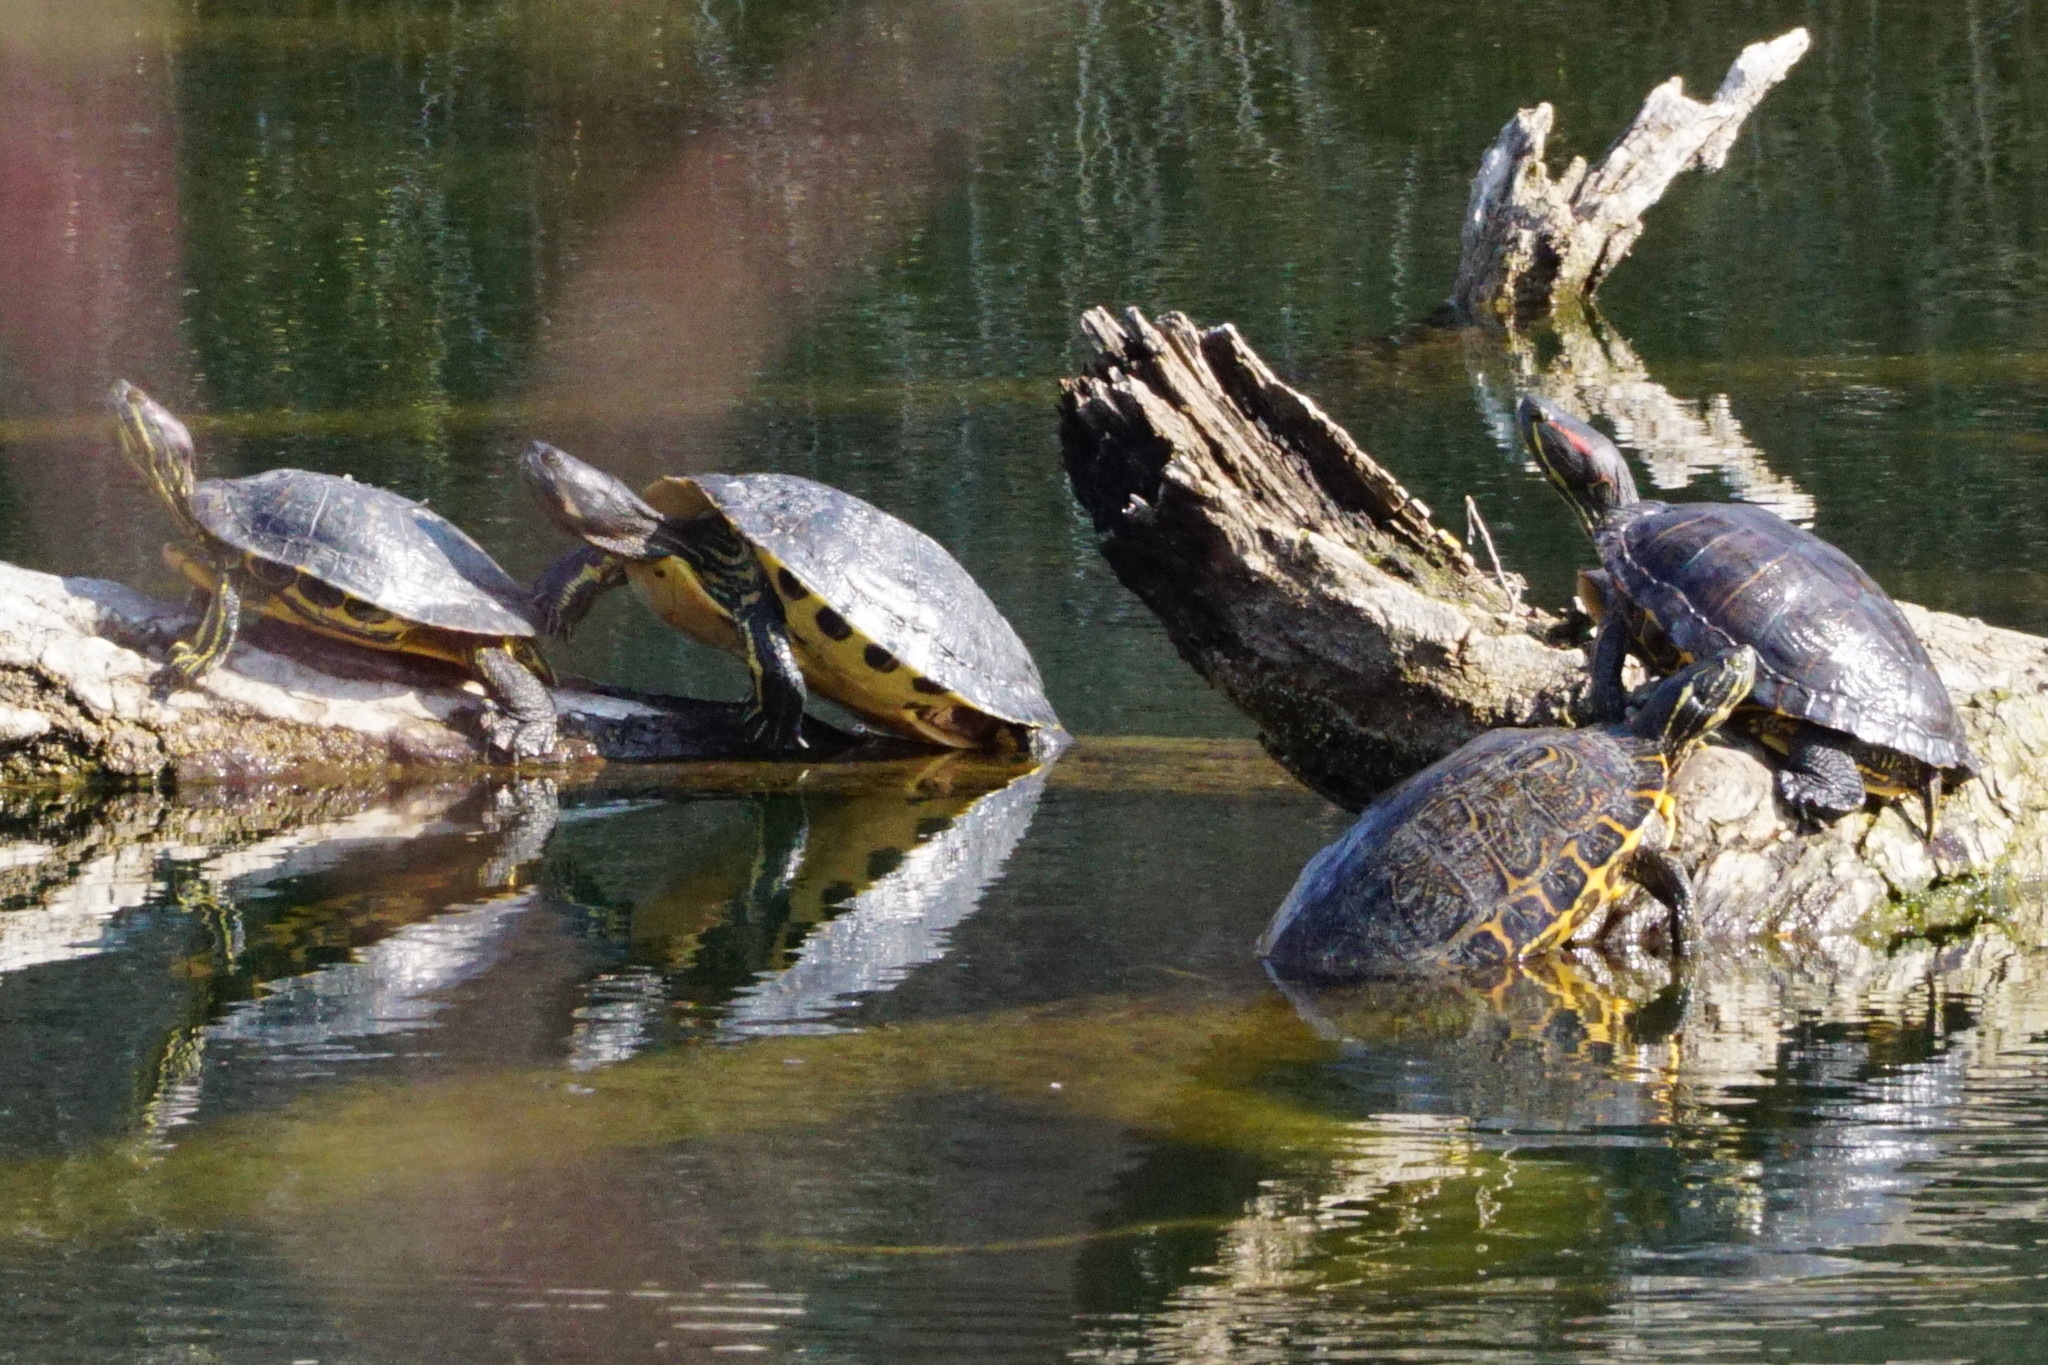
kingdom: Animalia
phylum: Chordata
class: Testudines
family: Emydidae
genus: Trachemys
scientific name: Trachemys scripta
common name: Slider
